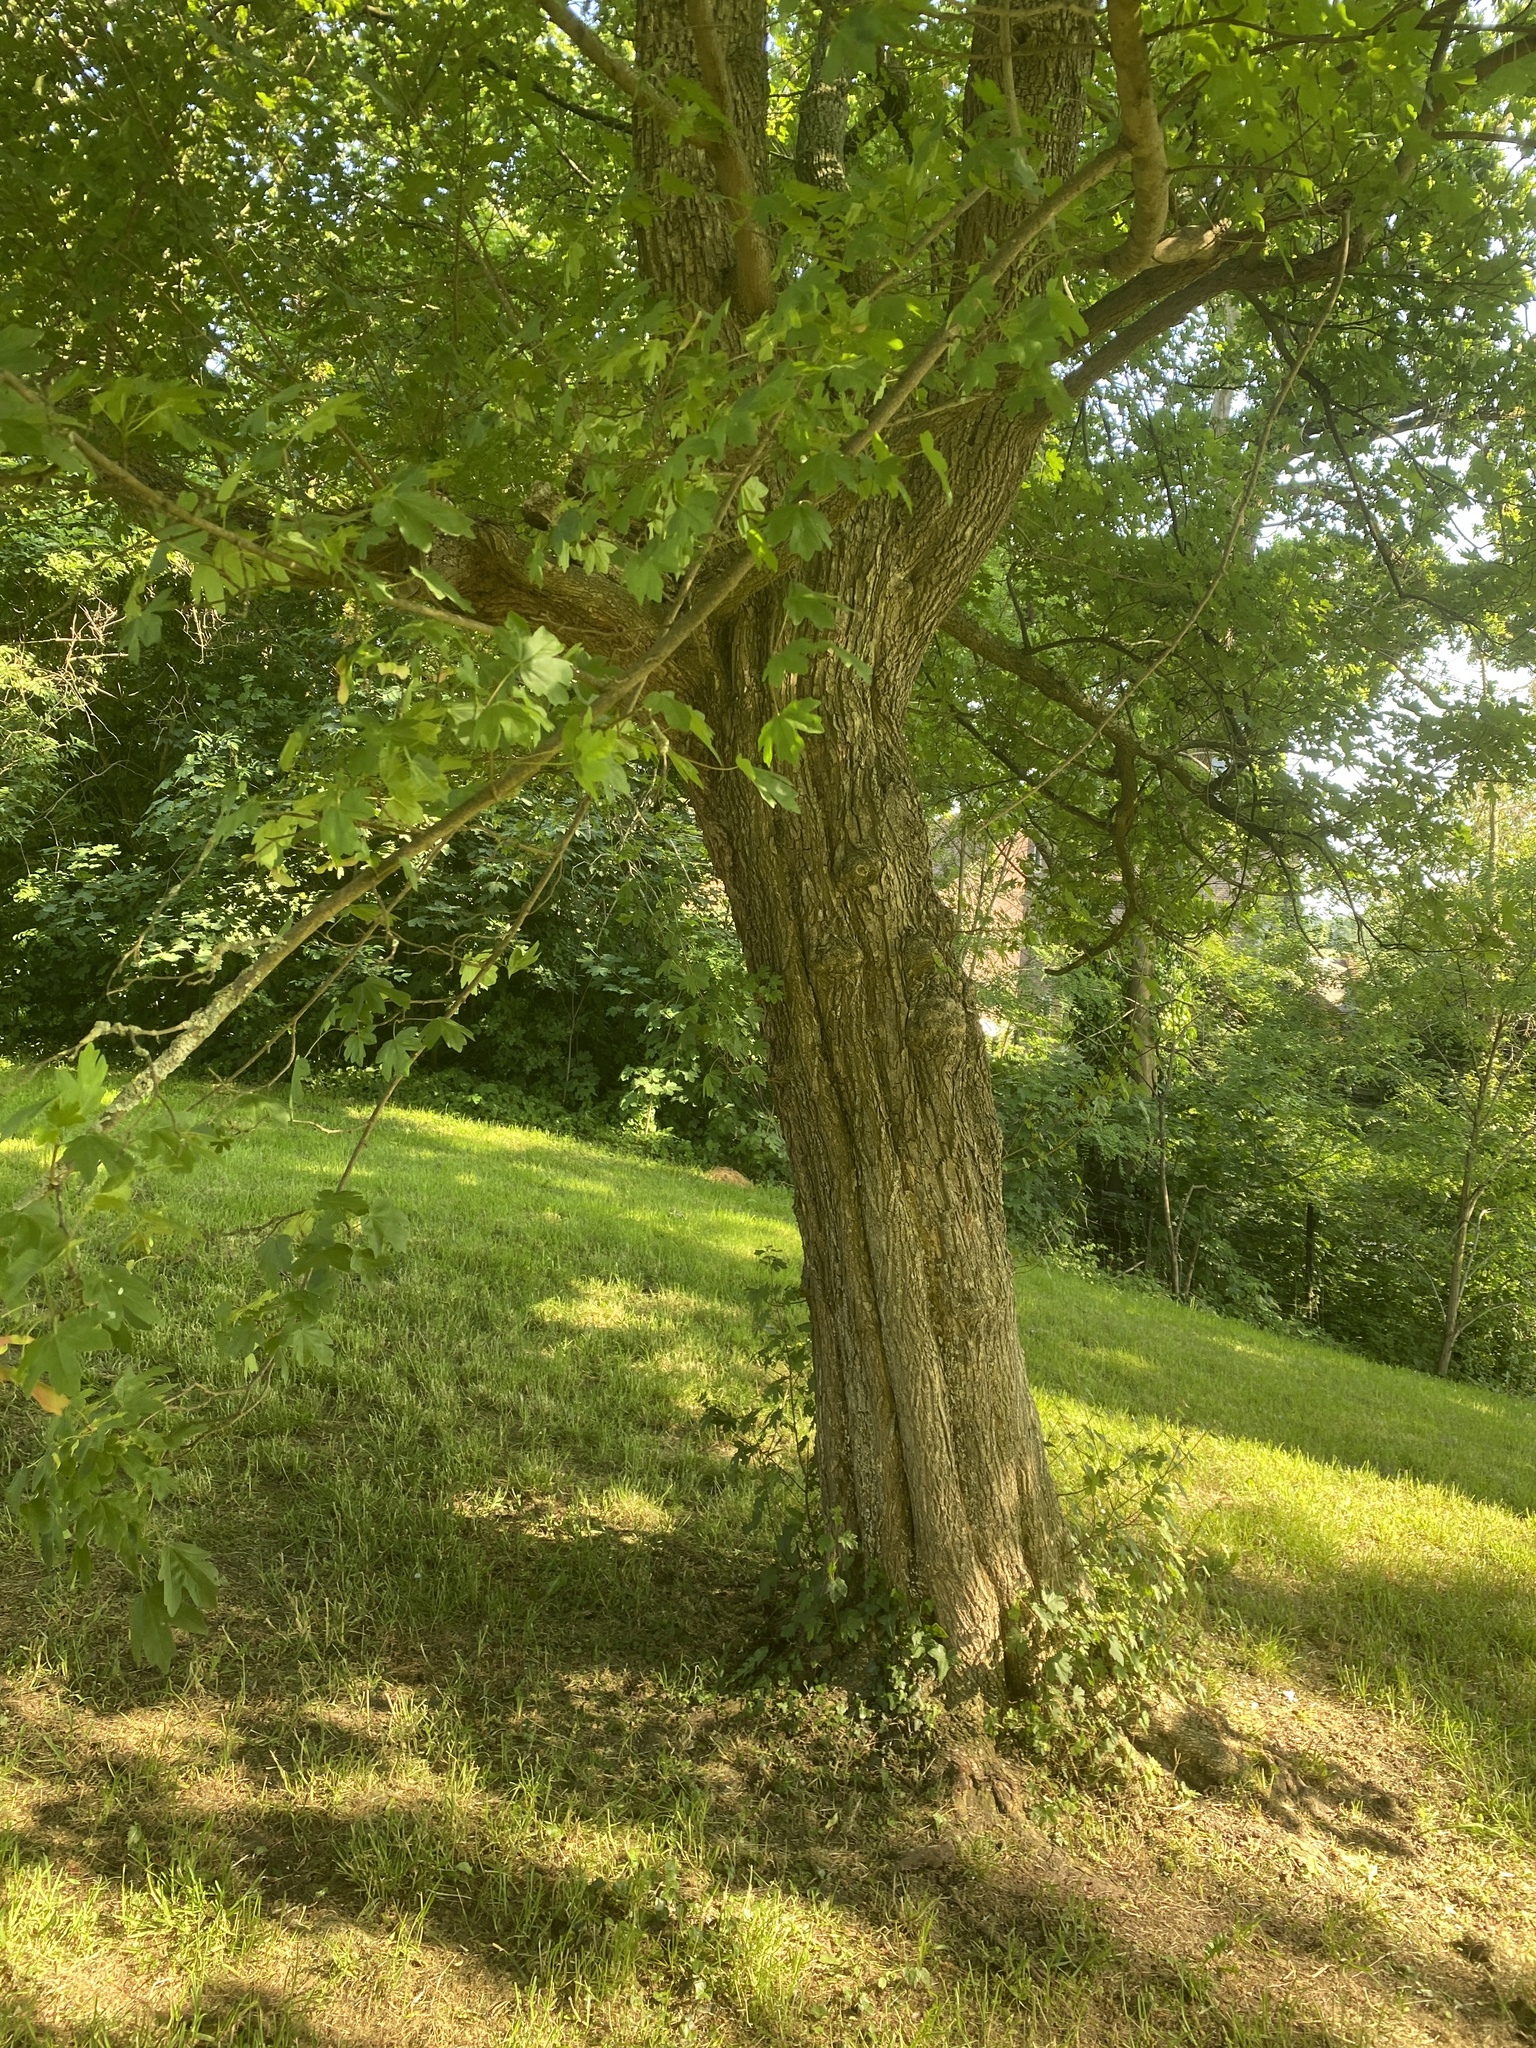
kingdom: Animalia
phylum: Arthropoda
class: Arachnida
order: Trombidiformes
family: Eriophyidae
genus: Aceria
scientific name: Aceria macrochelus
